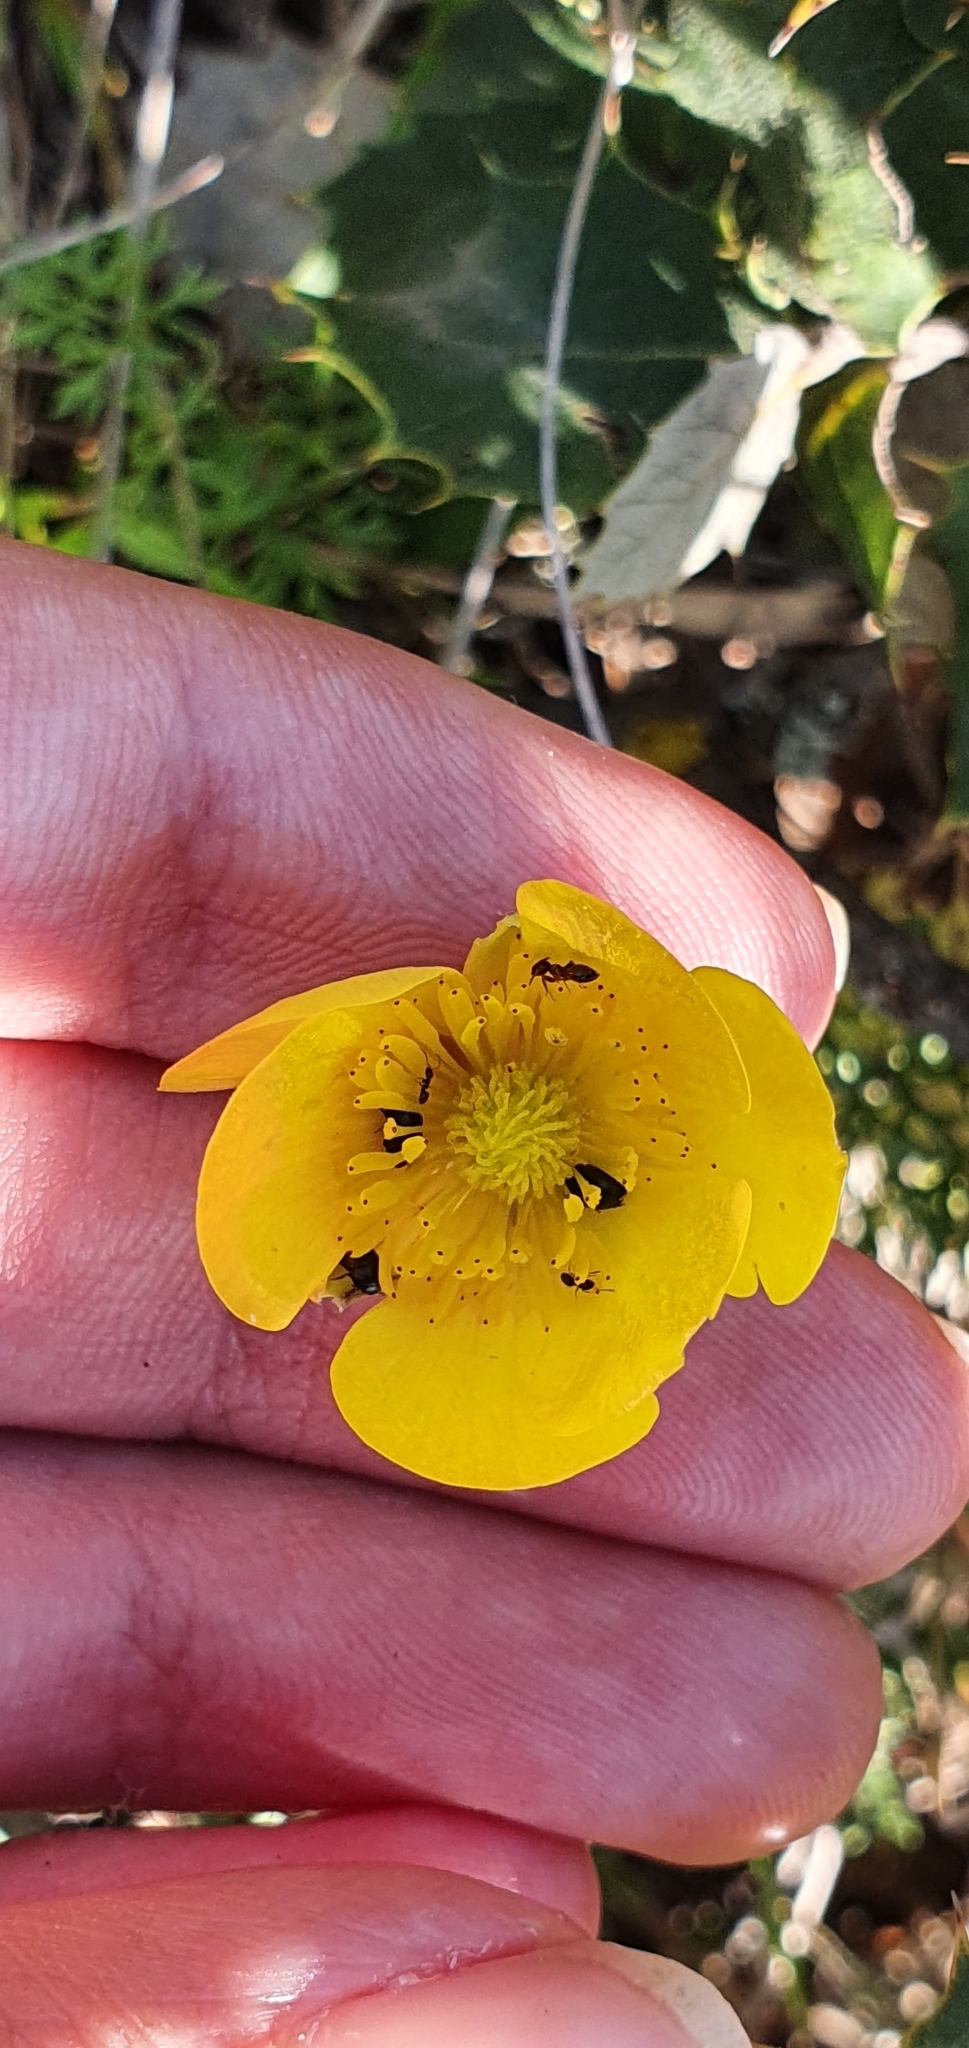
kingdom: Plantae
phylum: Tracheophyta
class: Magnoliopsida
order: Ranunculales
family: Ranunculaceae
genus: Ranunculus
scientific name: Ranunculus millefoliatus
